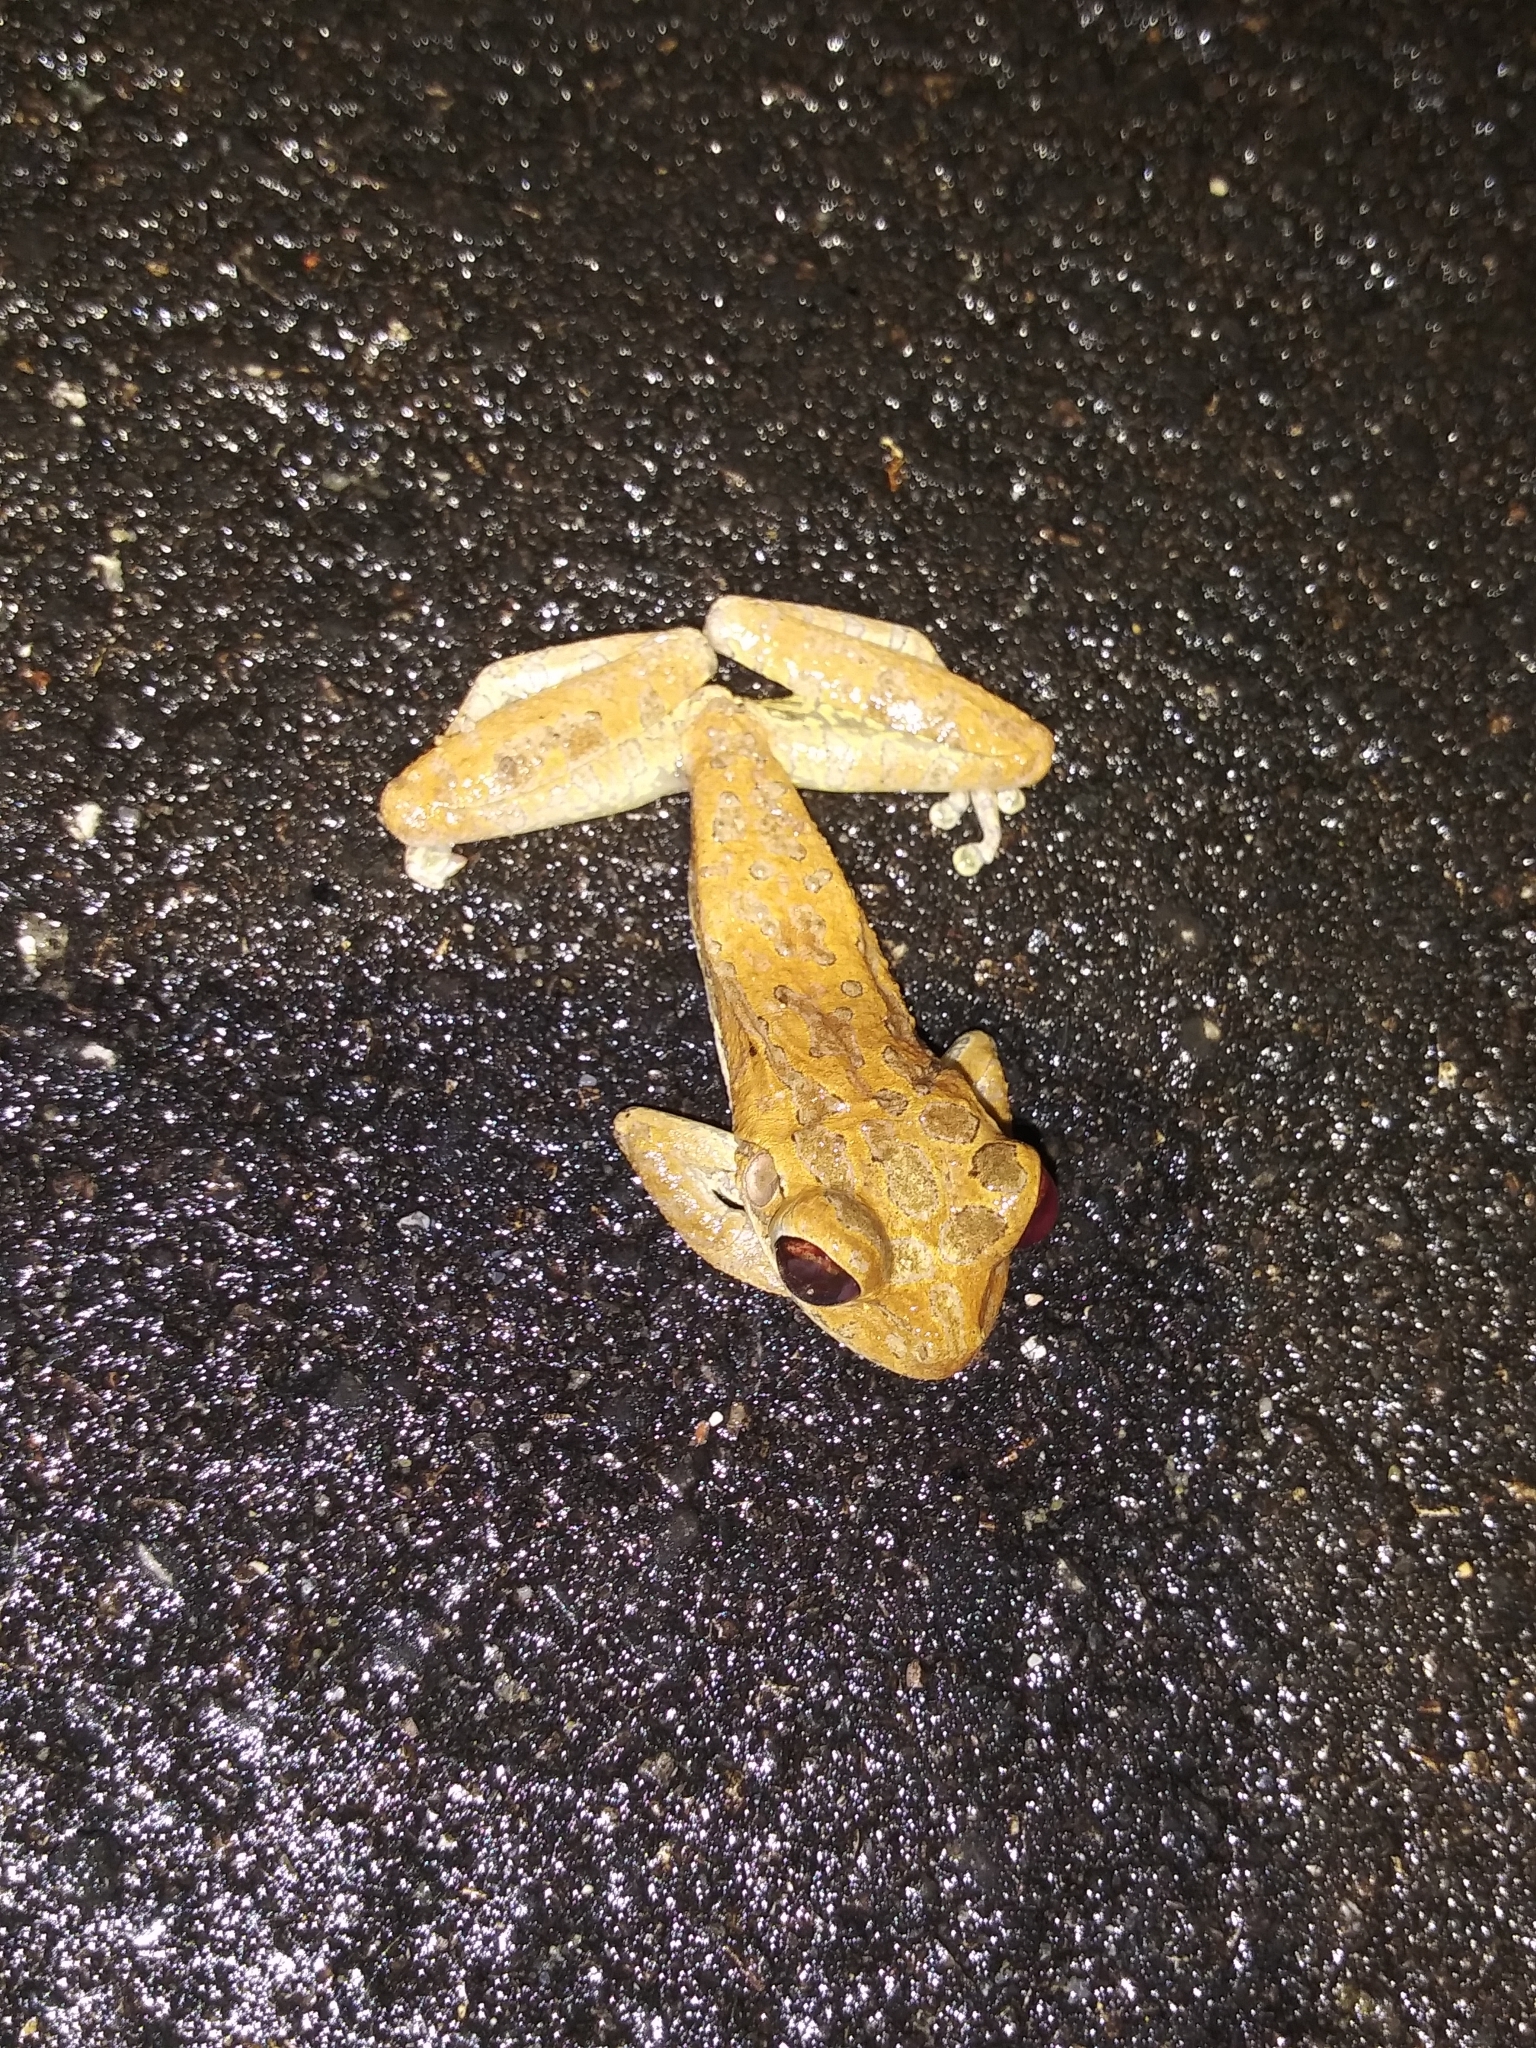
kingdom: Animalia
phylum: Chordata
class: Amphibia
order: Anura
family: Hylidae
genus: Osteopilus
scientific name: Osteopilus septentrionalis
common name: Cuban treefrog
